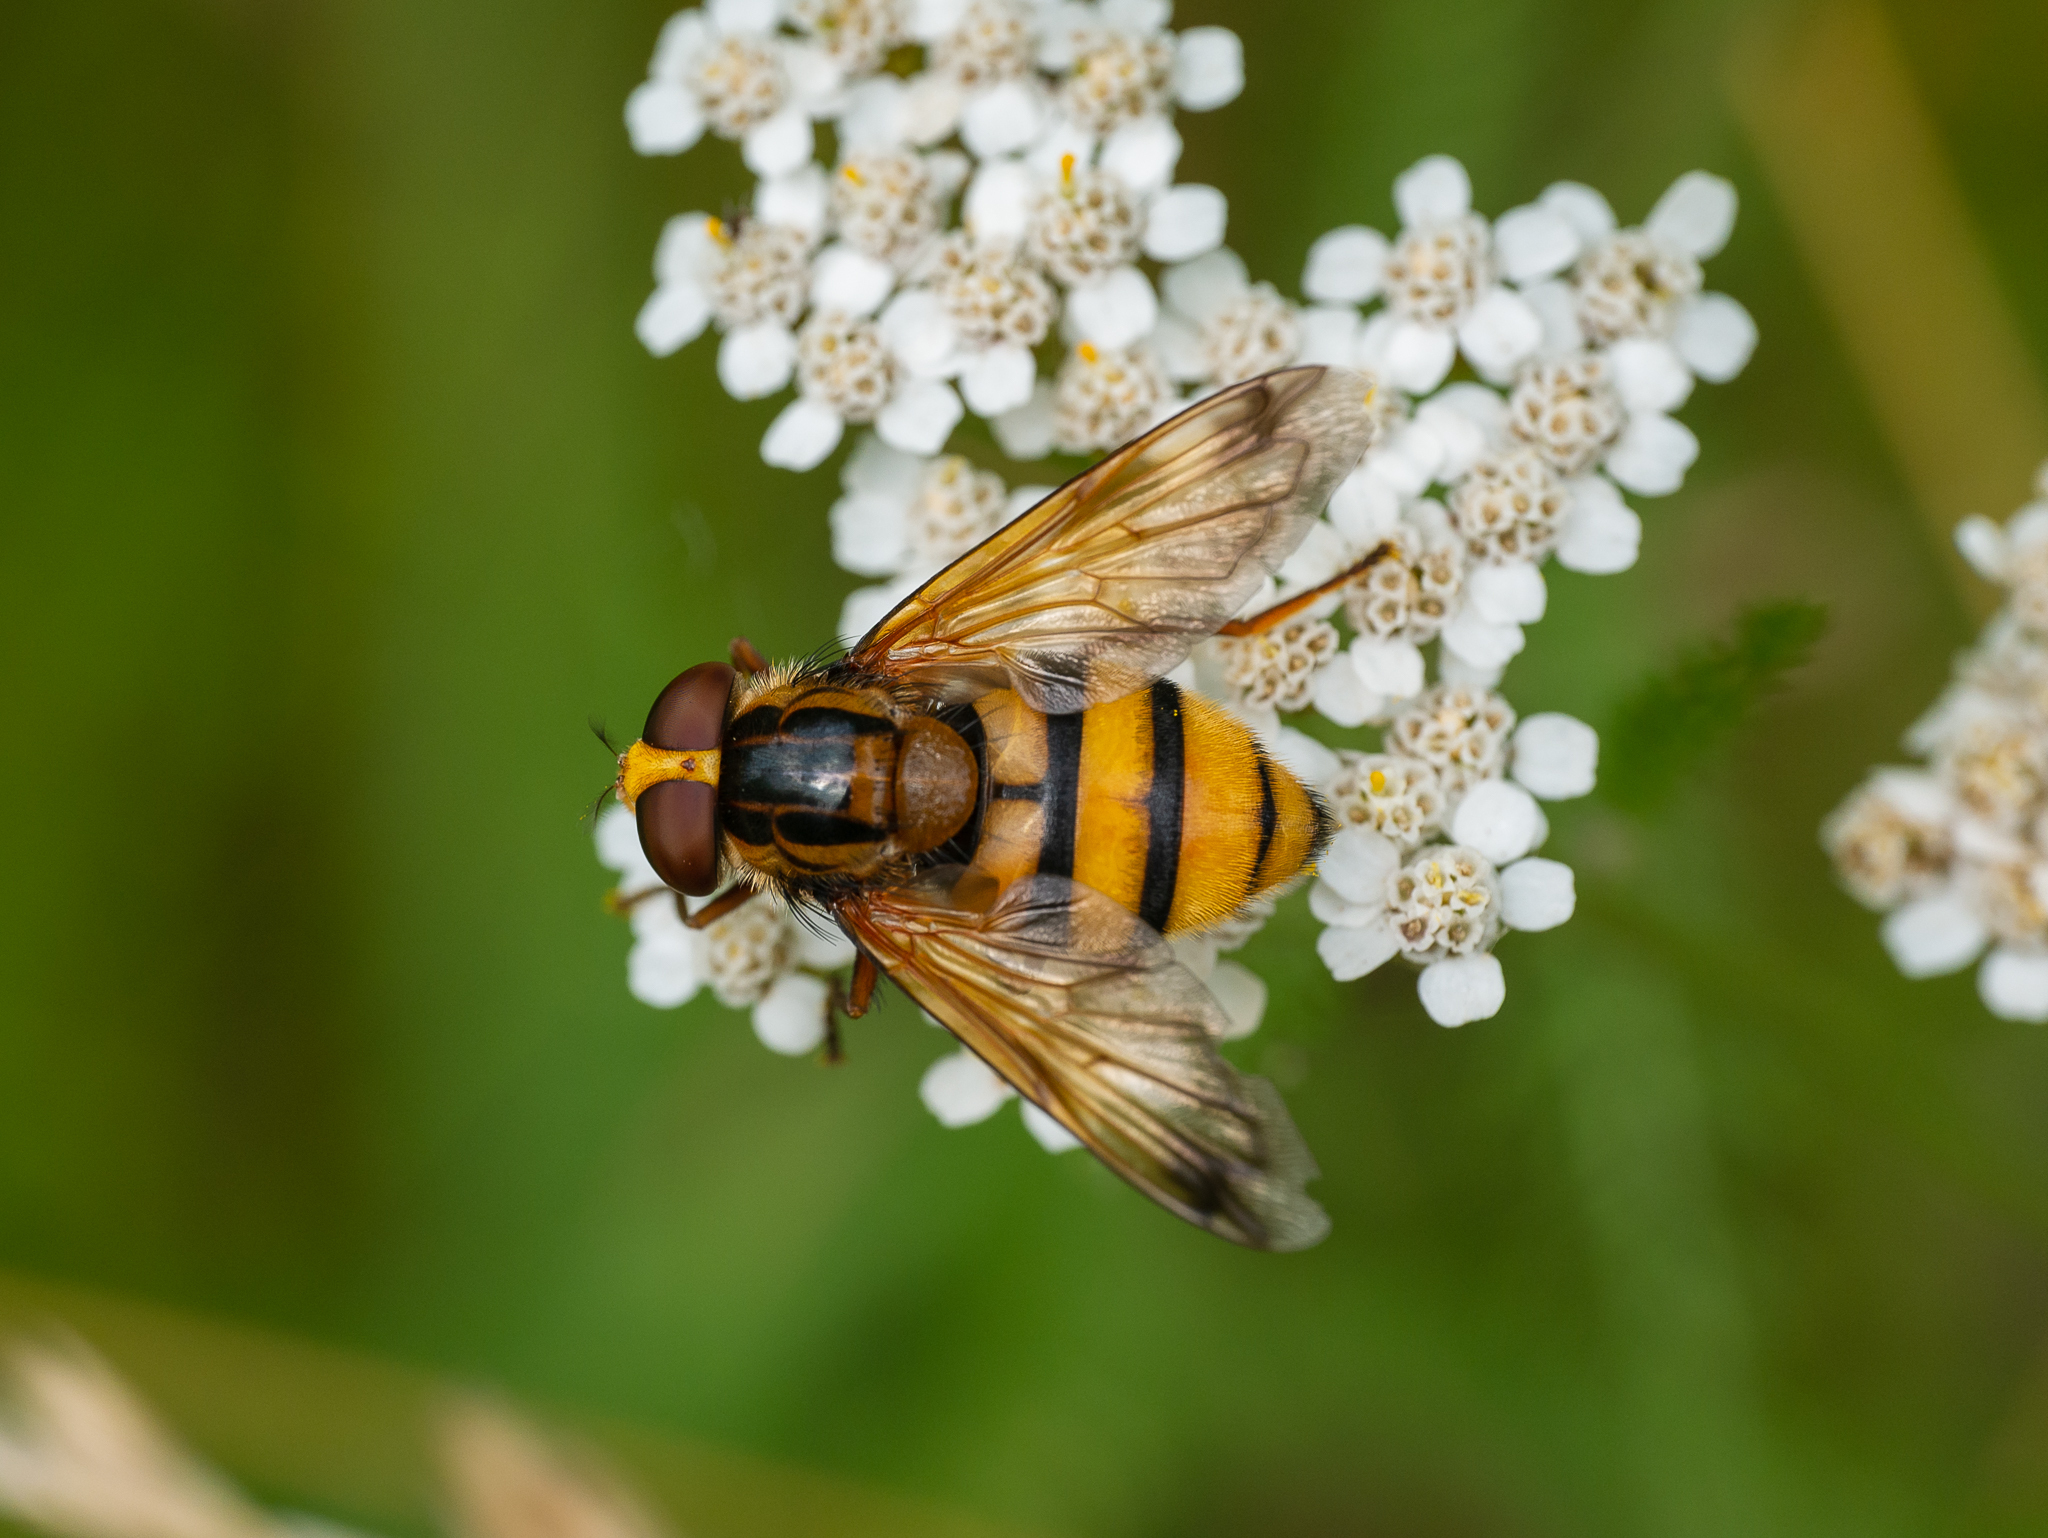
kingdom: Animalia
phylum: Arthropoda
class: Insecta
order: Diptera
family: Syrphidae
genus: Volucella
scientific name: Volucella inanis
